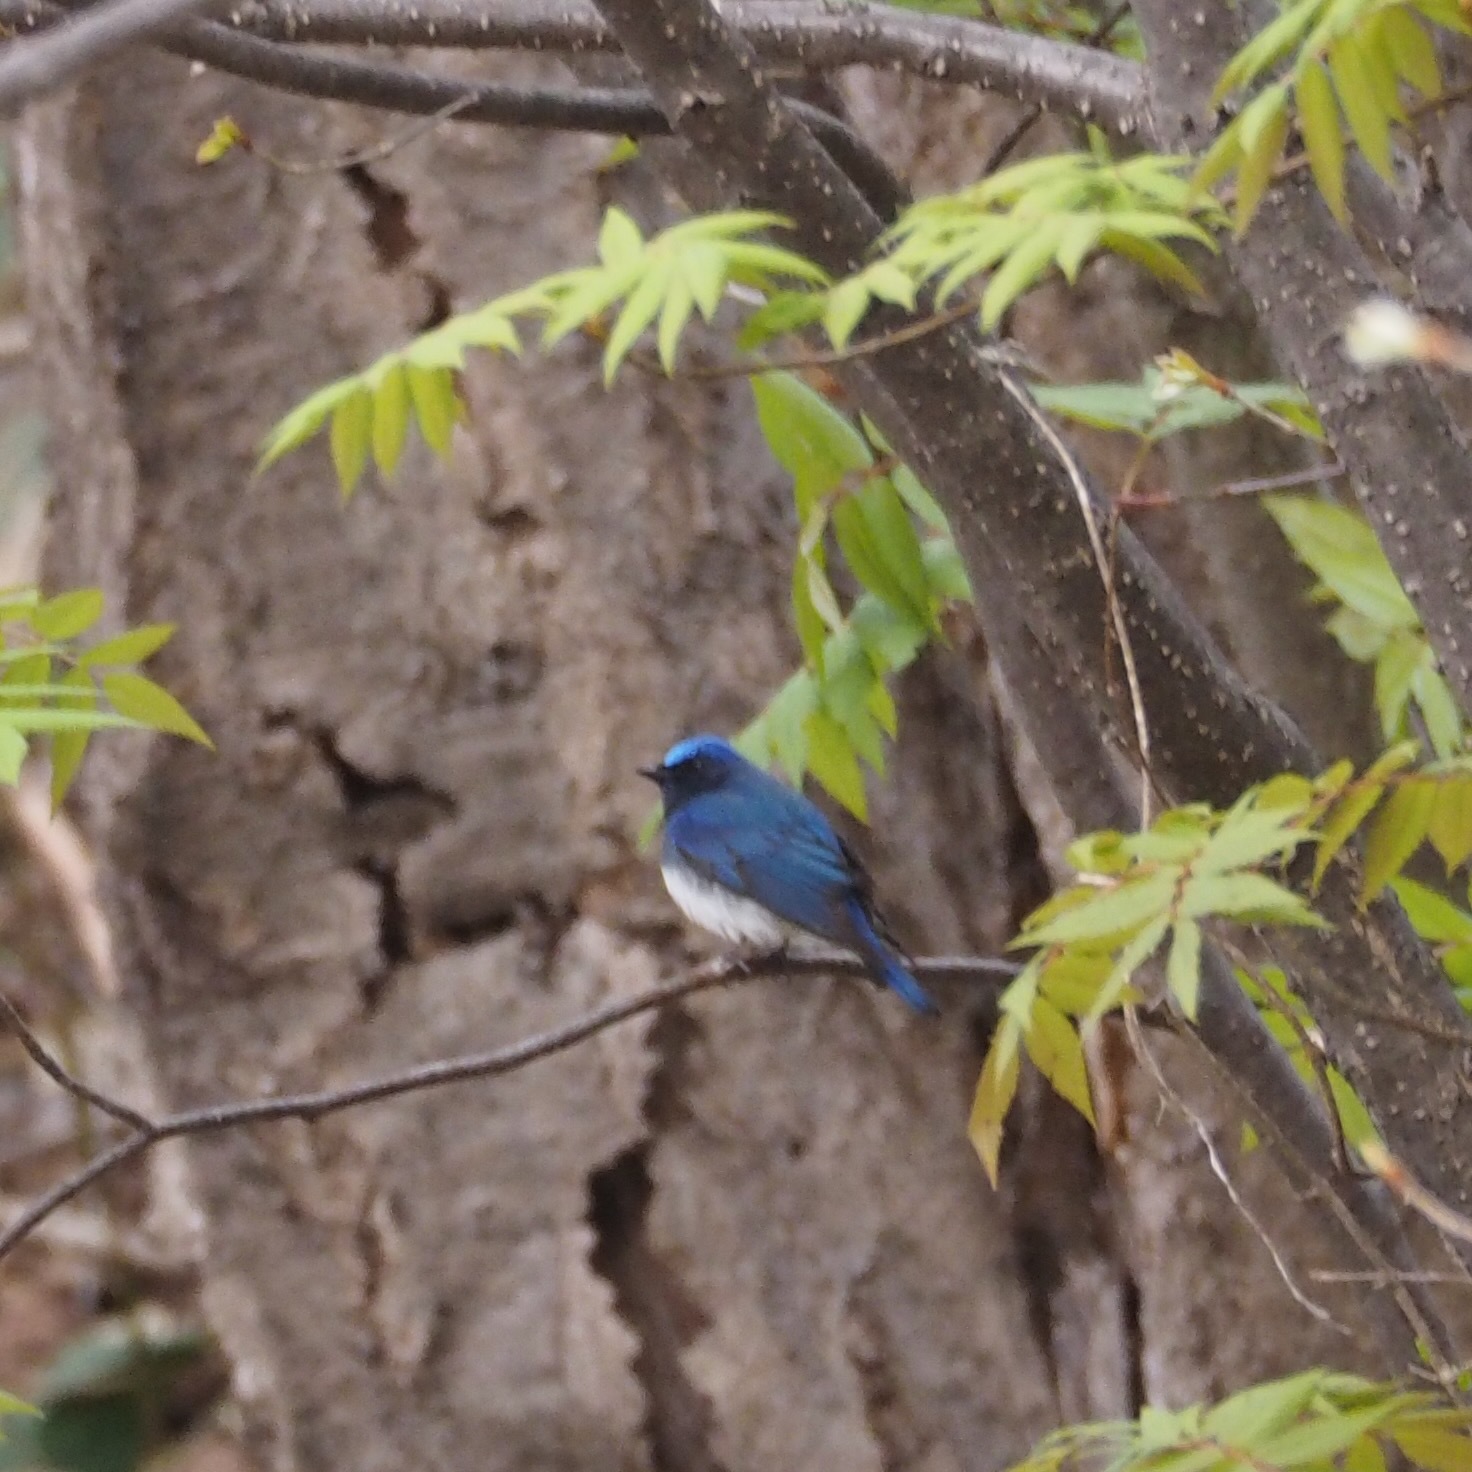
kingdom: Animalia
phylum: Chordata
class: Aves
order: Passeriformes
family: Muscicapidae
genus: Cyanoptila
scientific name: Cyanoptila cyanomelana
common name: Blue-and-white flycatcher
